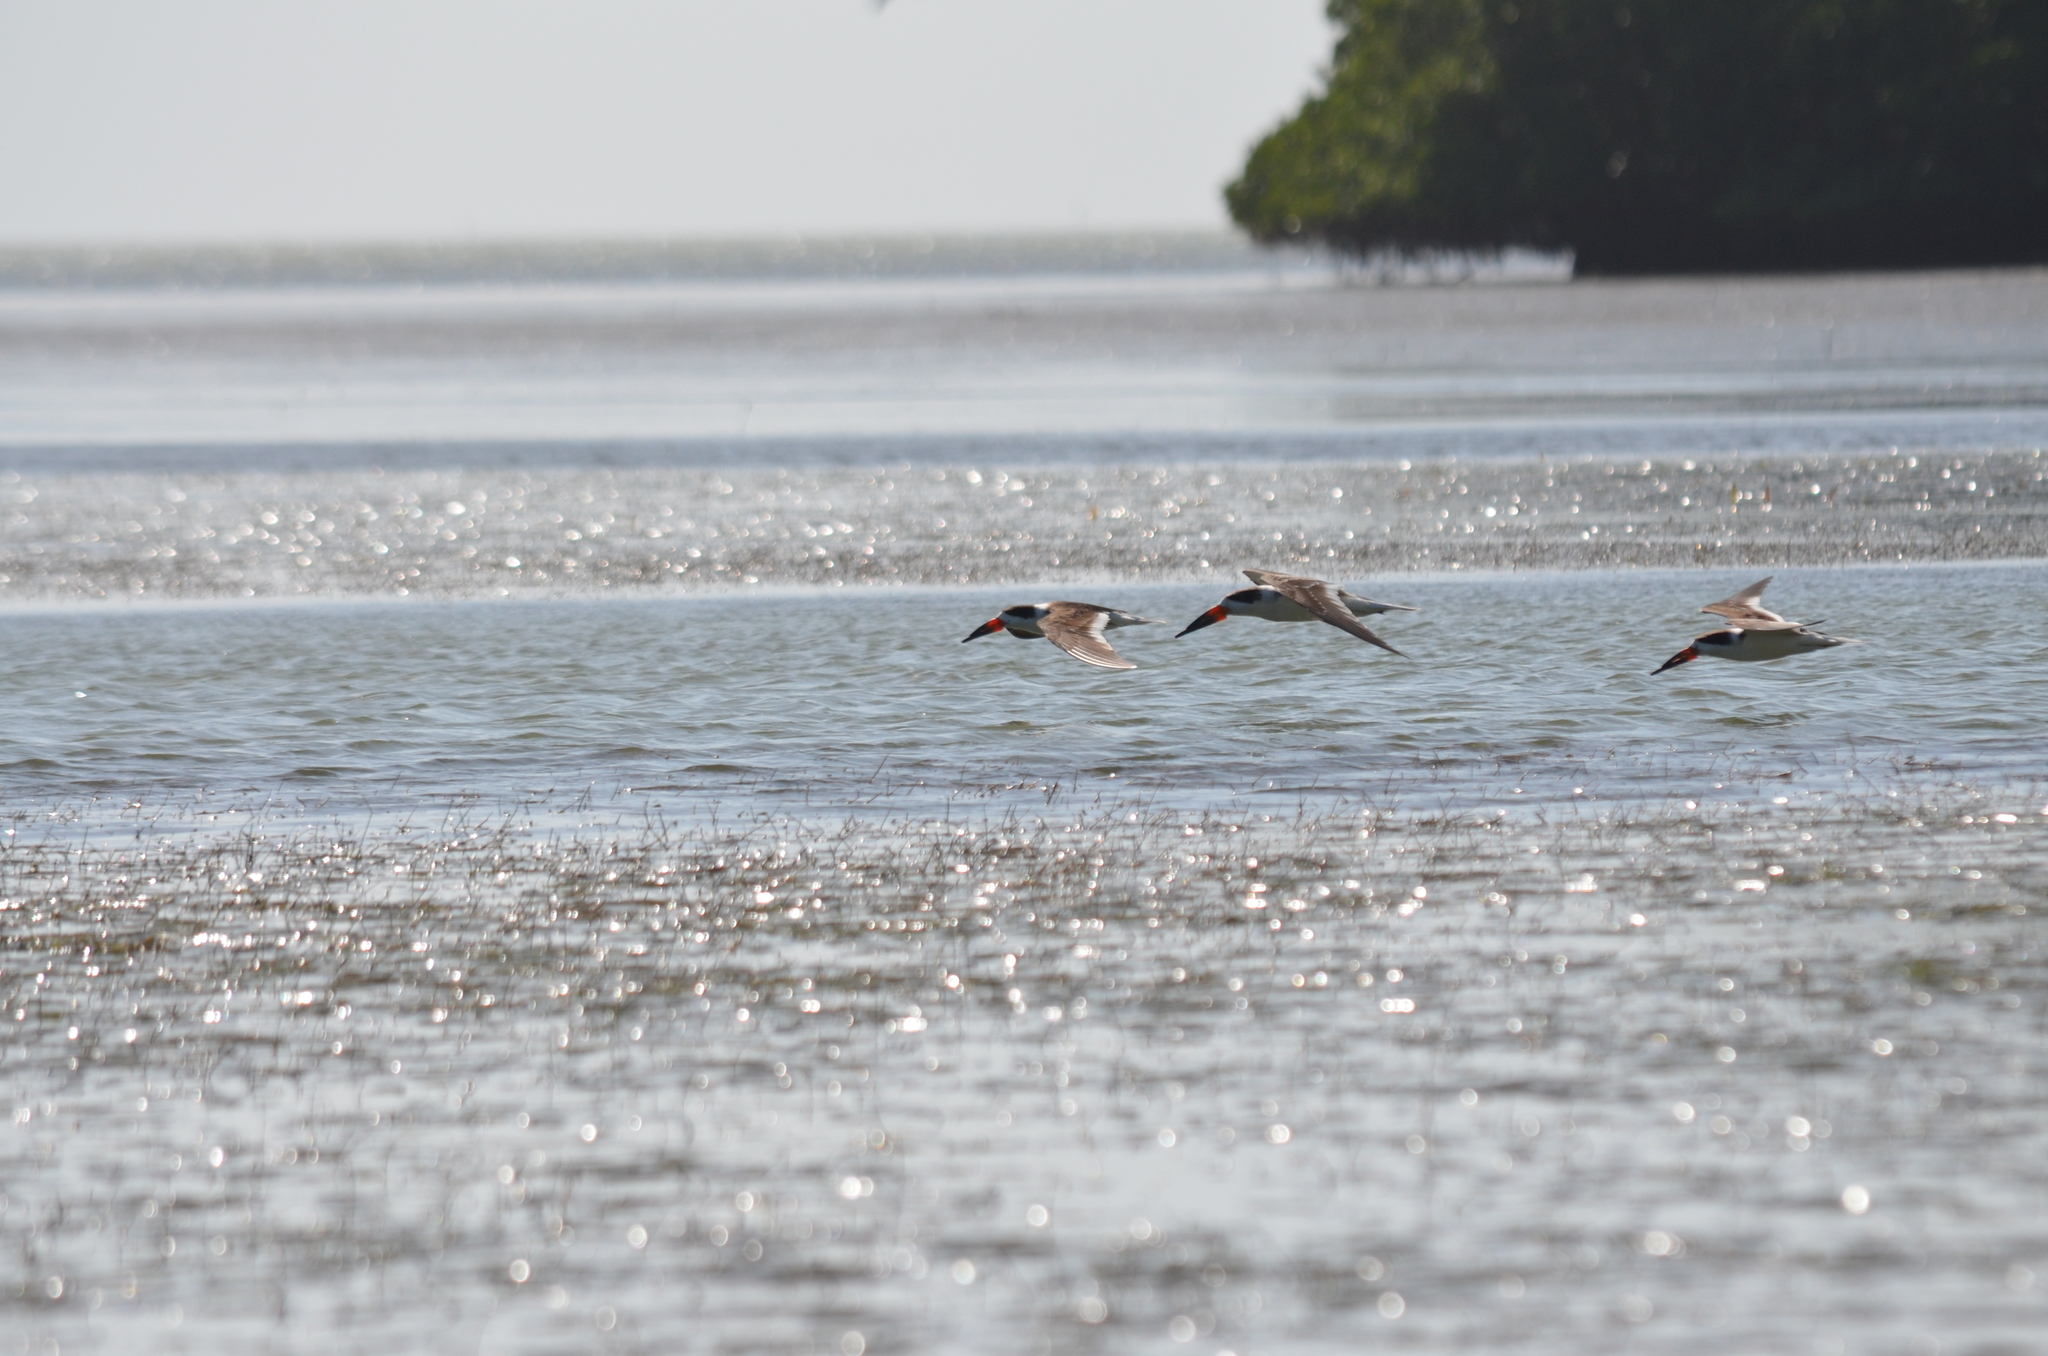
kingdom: Animalia
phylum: Chordata
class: Aves
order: Charadriiformes
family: Laridae
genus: Rynchops
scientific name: Rynchops niger
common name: Black skimmer
